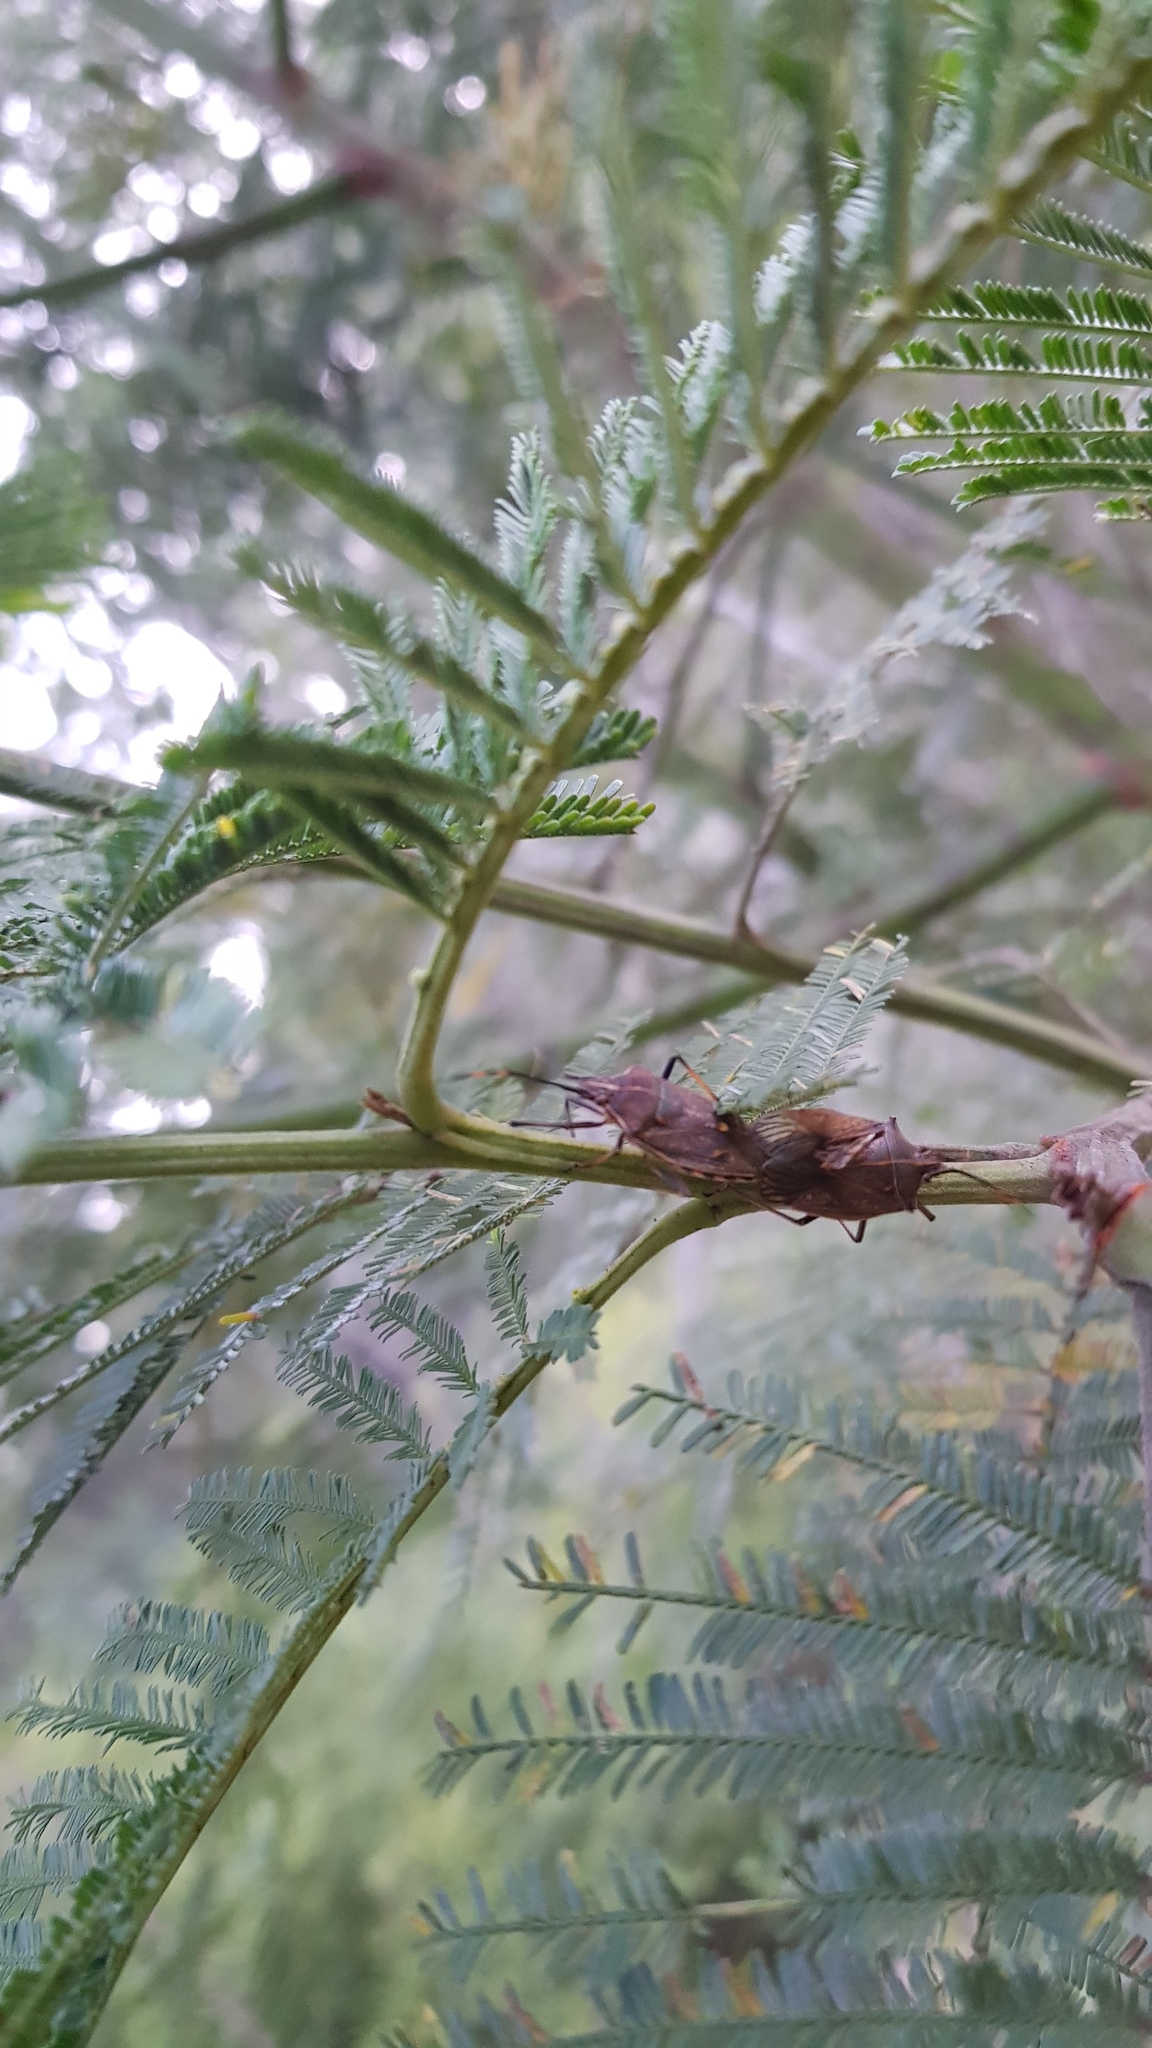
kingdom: Animalia
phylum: Arthropoda
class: Insecta
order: Hemiptera
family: Pentatomidae
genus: Omyta
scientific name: Omyta centrolineata
